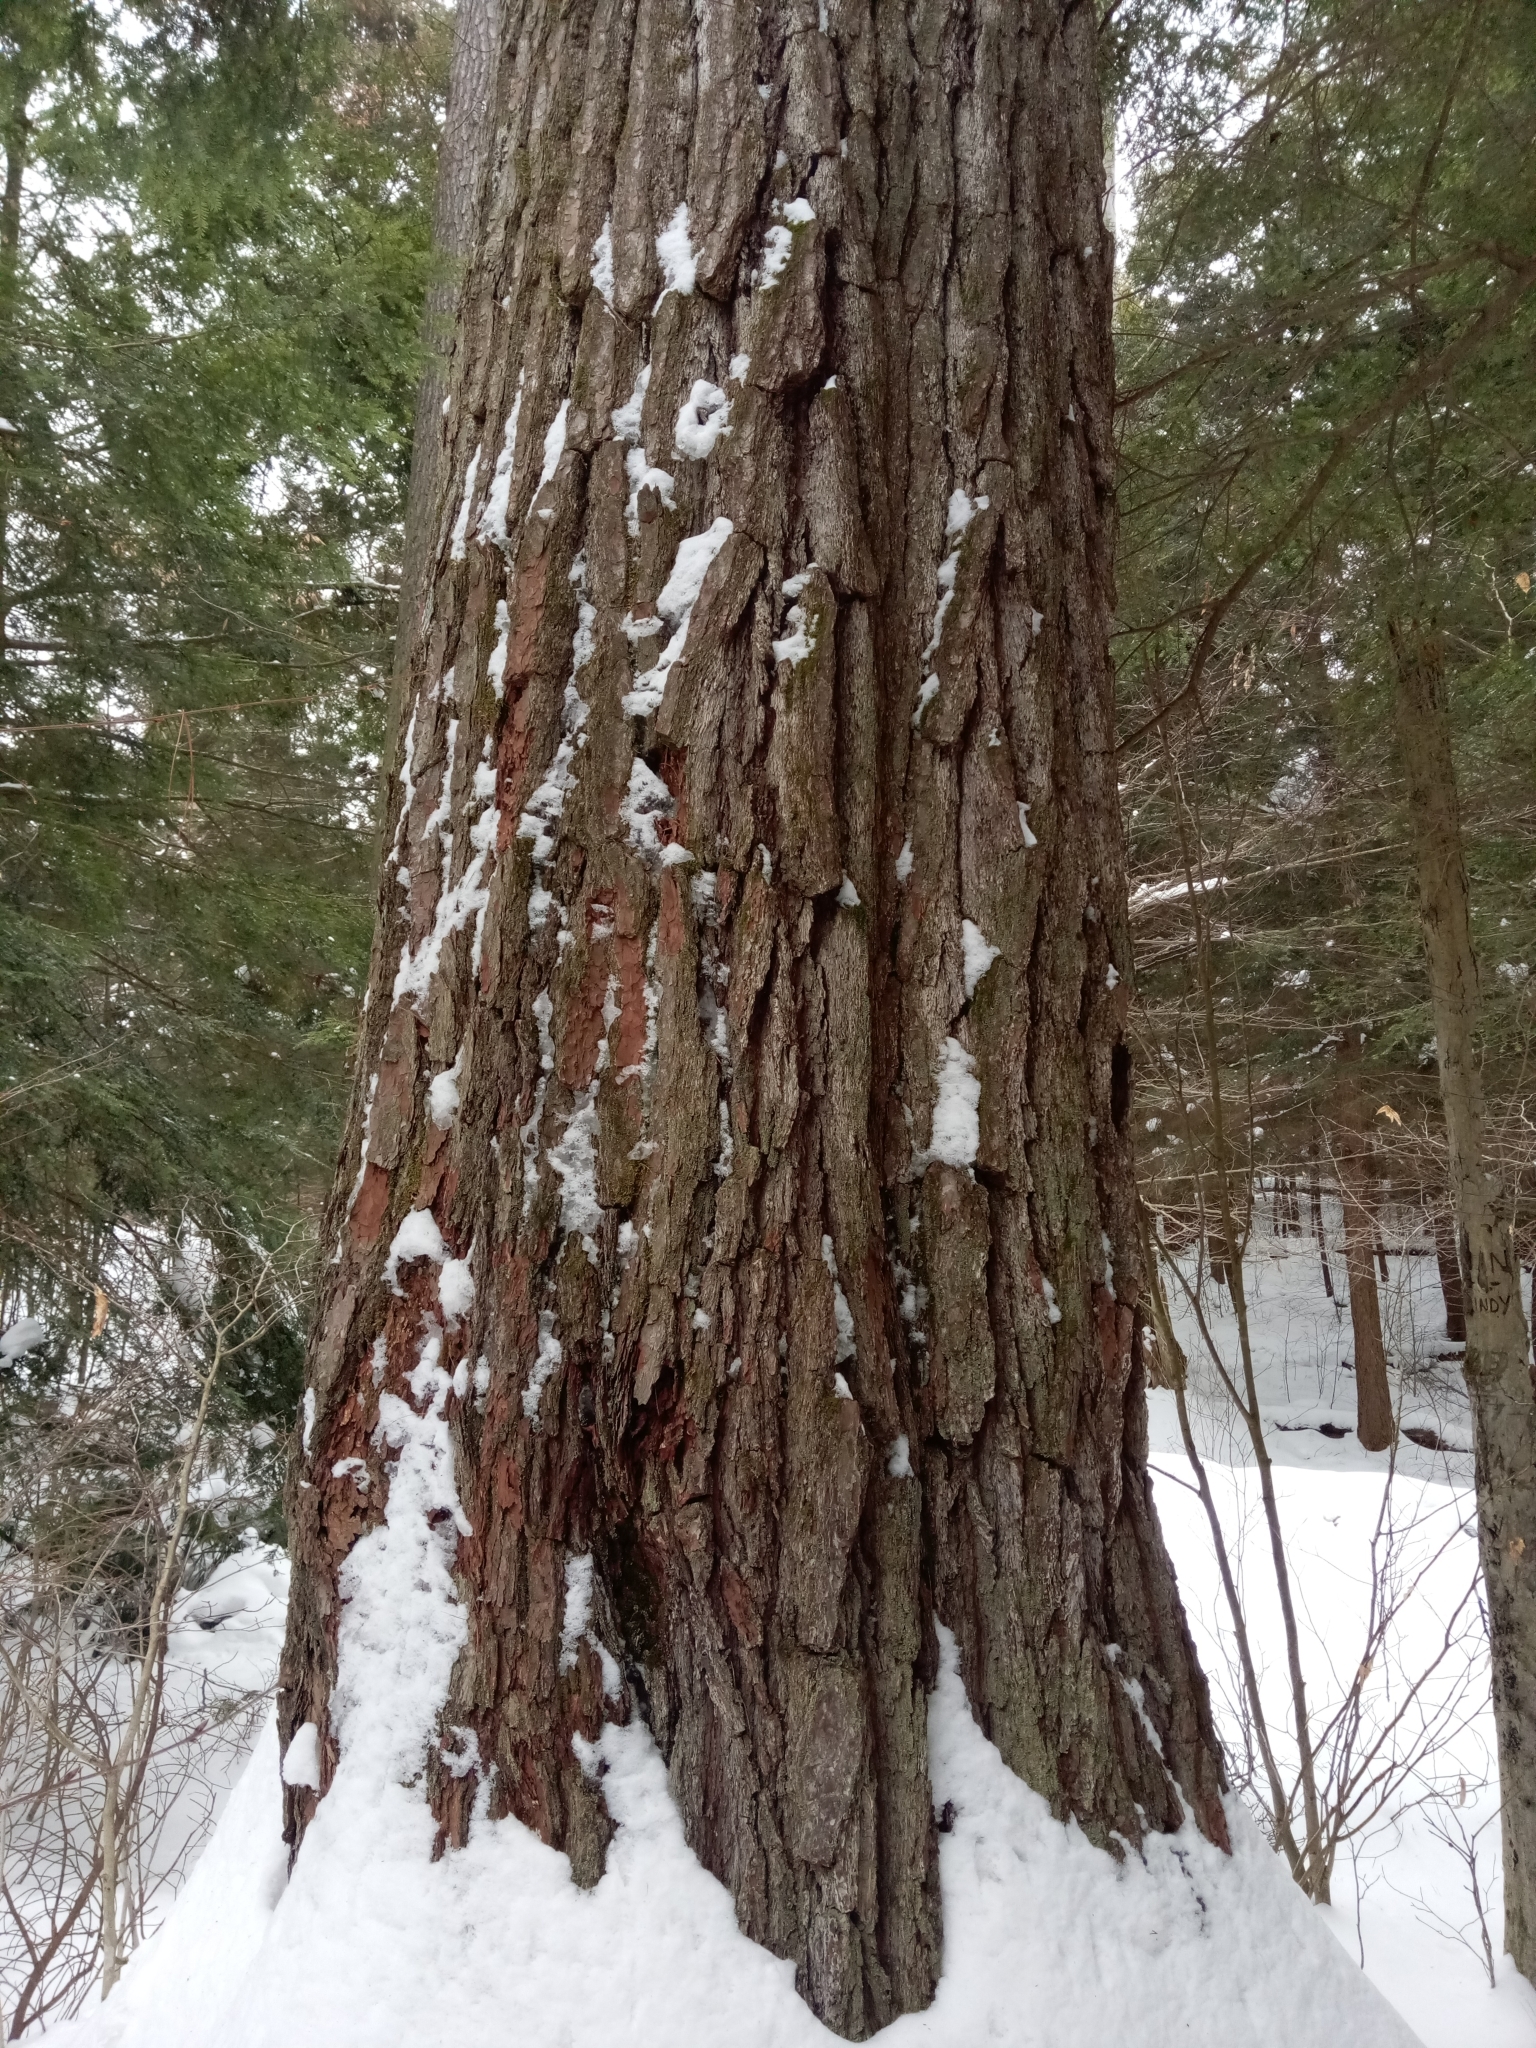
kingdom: Plantae
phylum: Tracheophyta
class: Pinopsida
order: Pinales
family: Pinaceae
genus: Pinus
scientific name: Pinus strobus
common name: Weymouth pine
